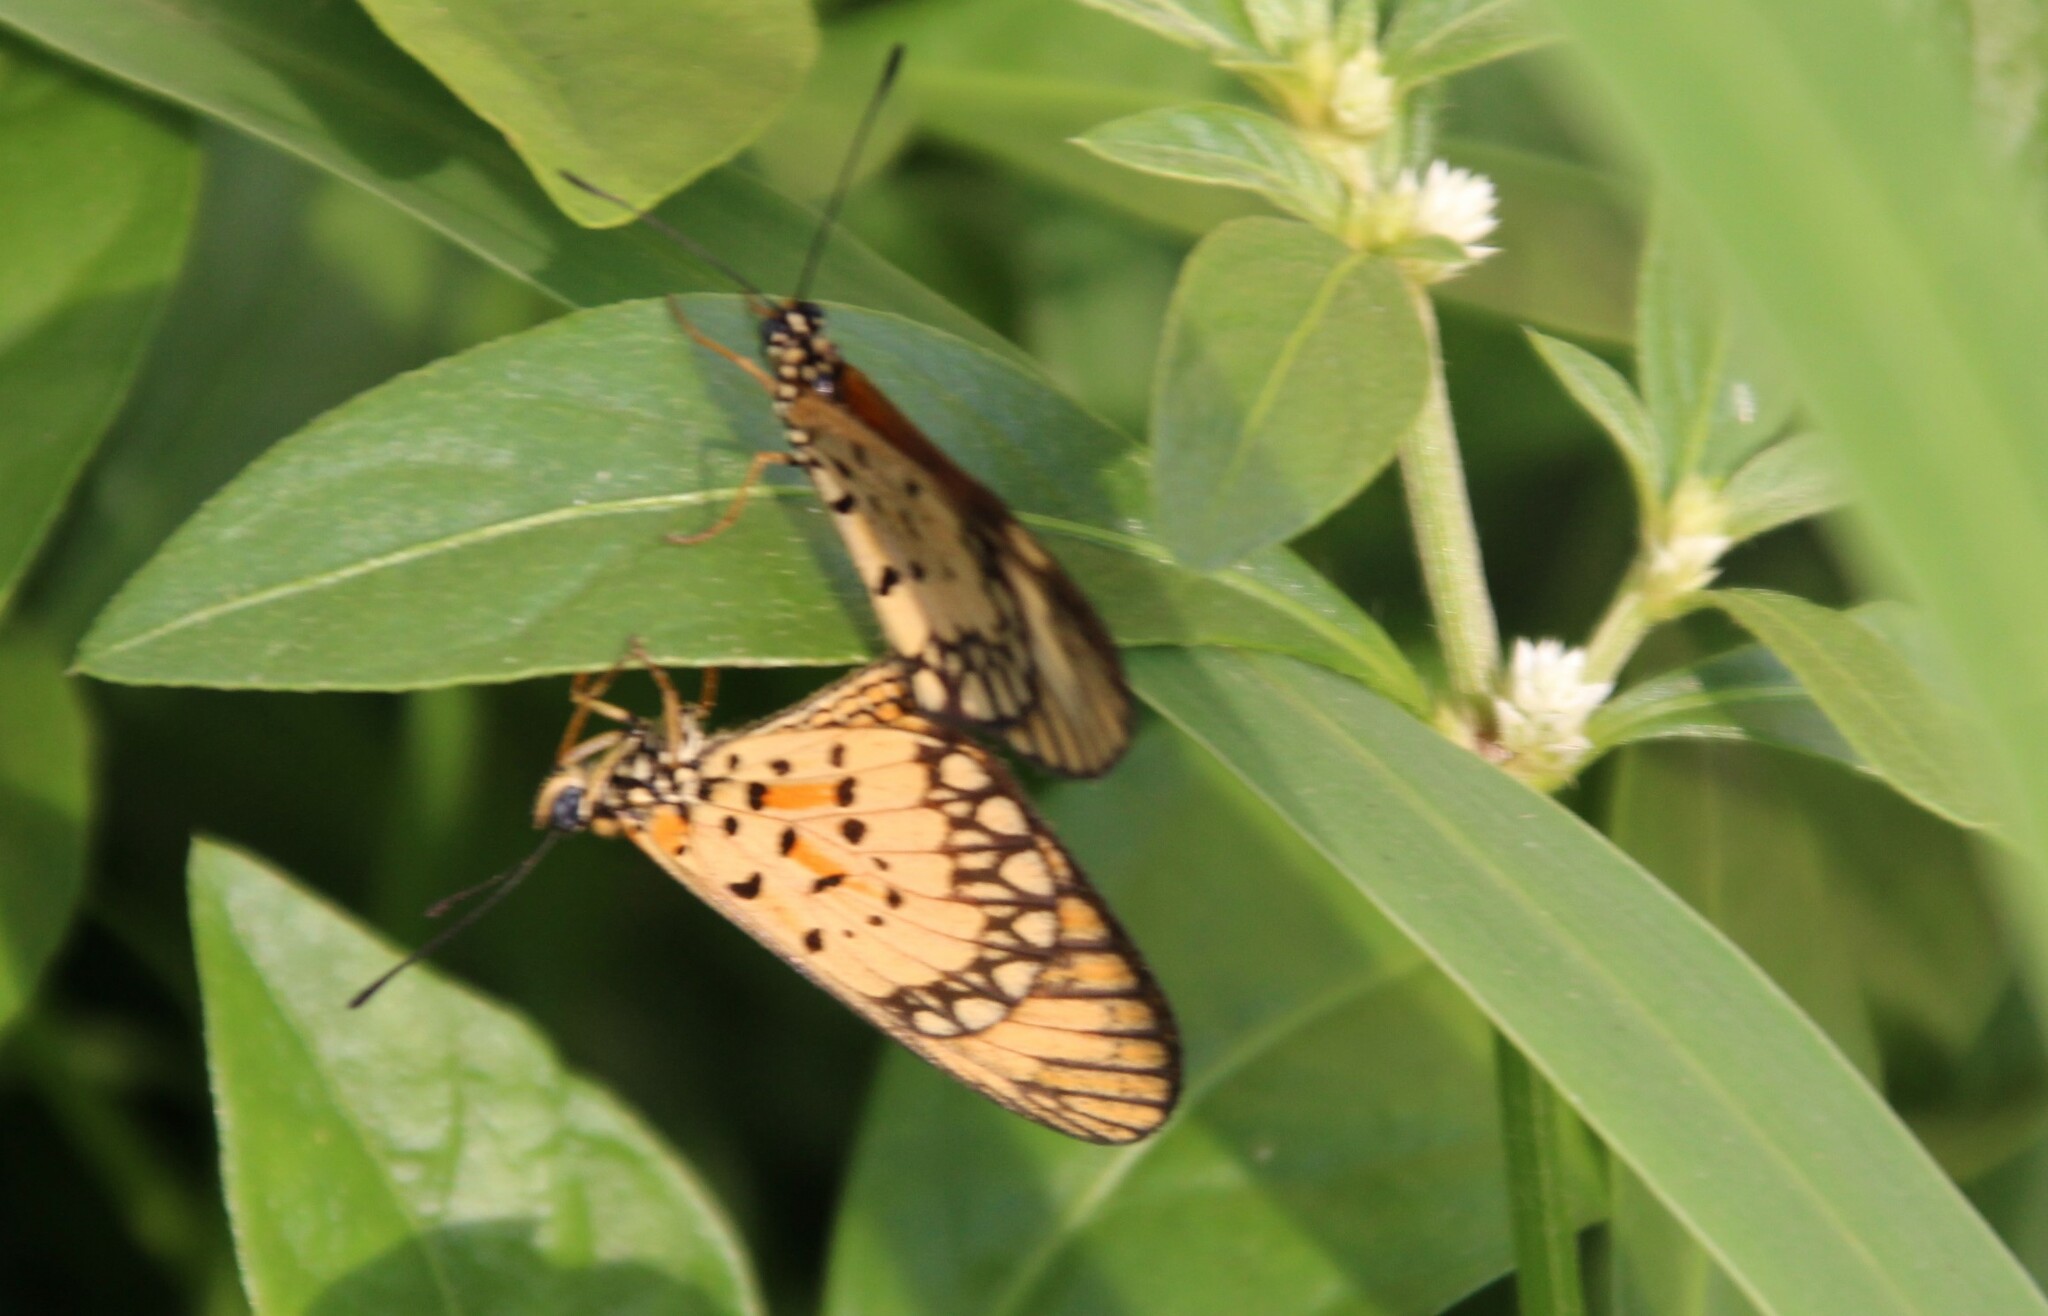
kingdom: Animalia
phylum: Arthropoda
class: Insecta
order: Lepidoptera
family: Nymphalidae
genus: Acraea
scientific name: Acraea Telchinia serena
